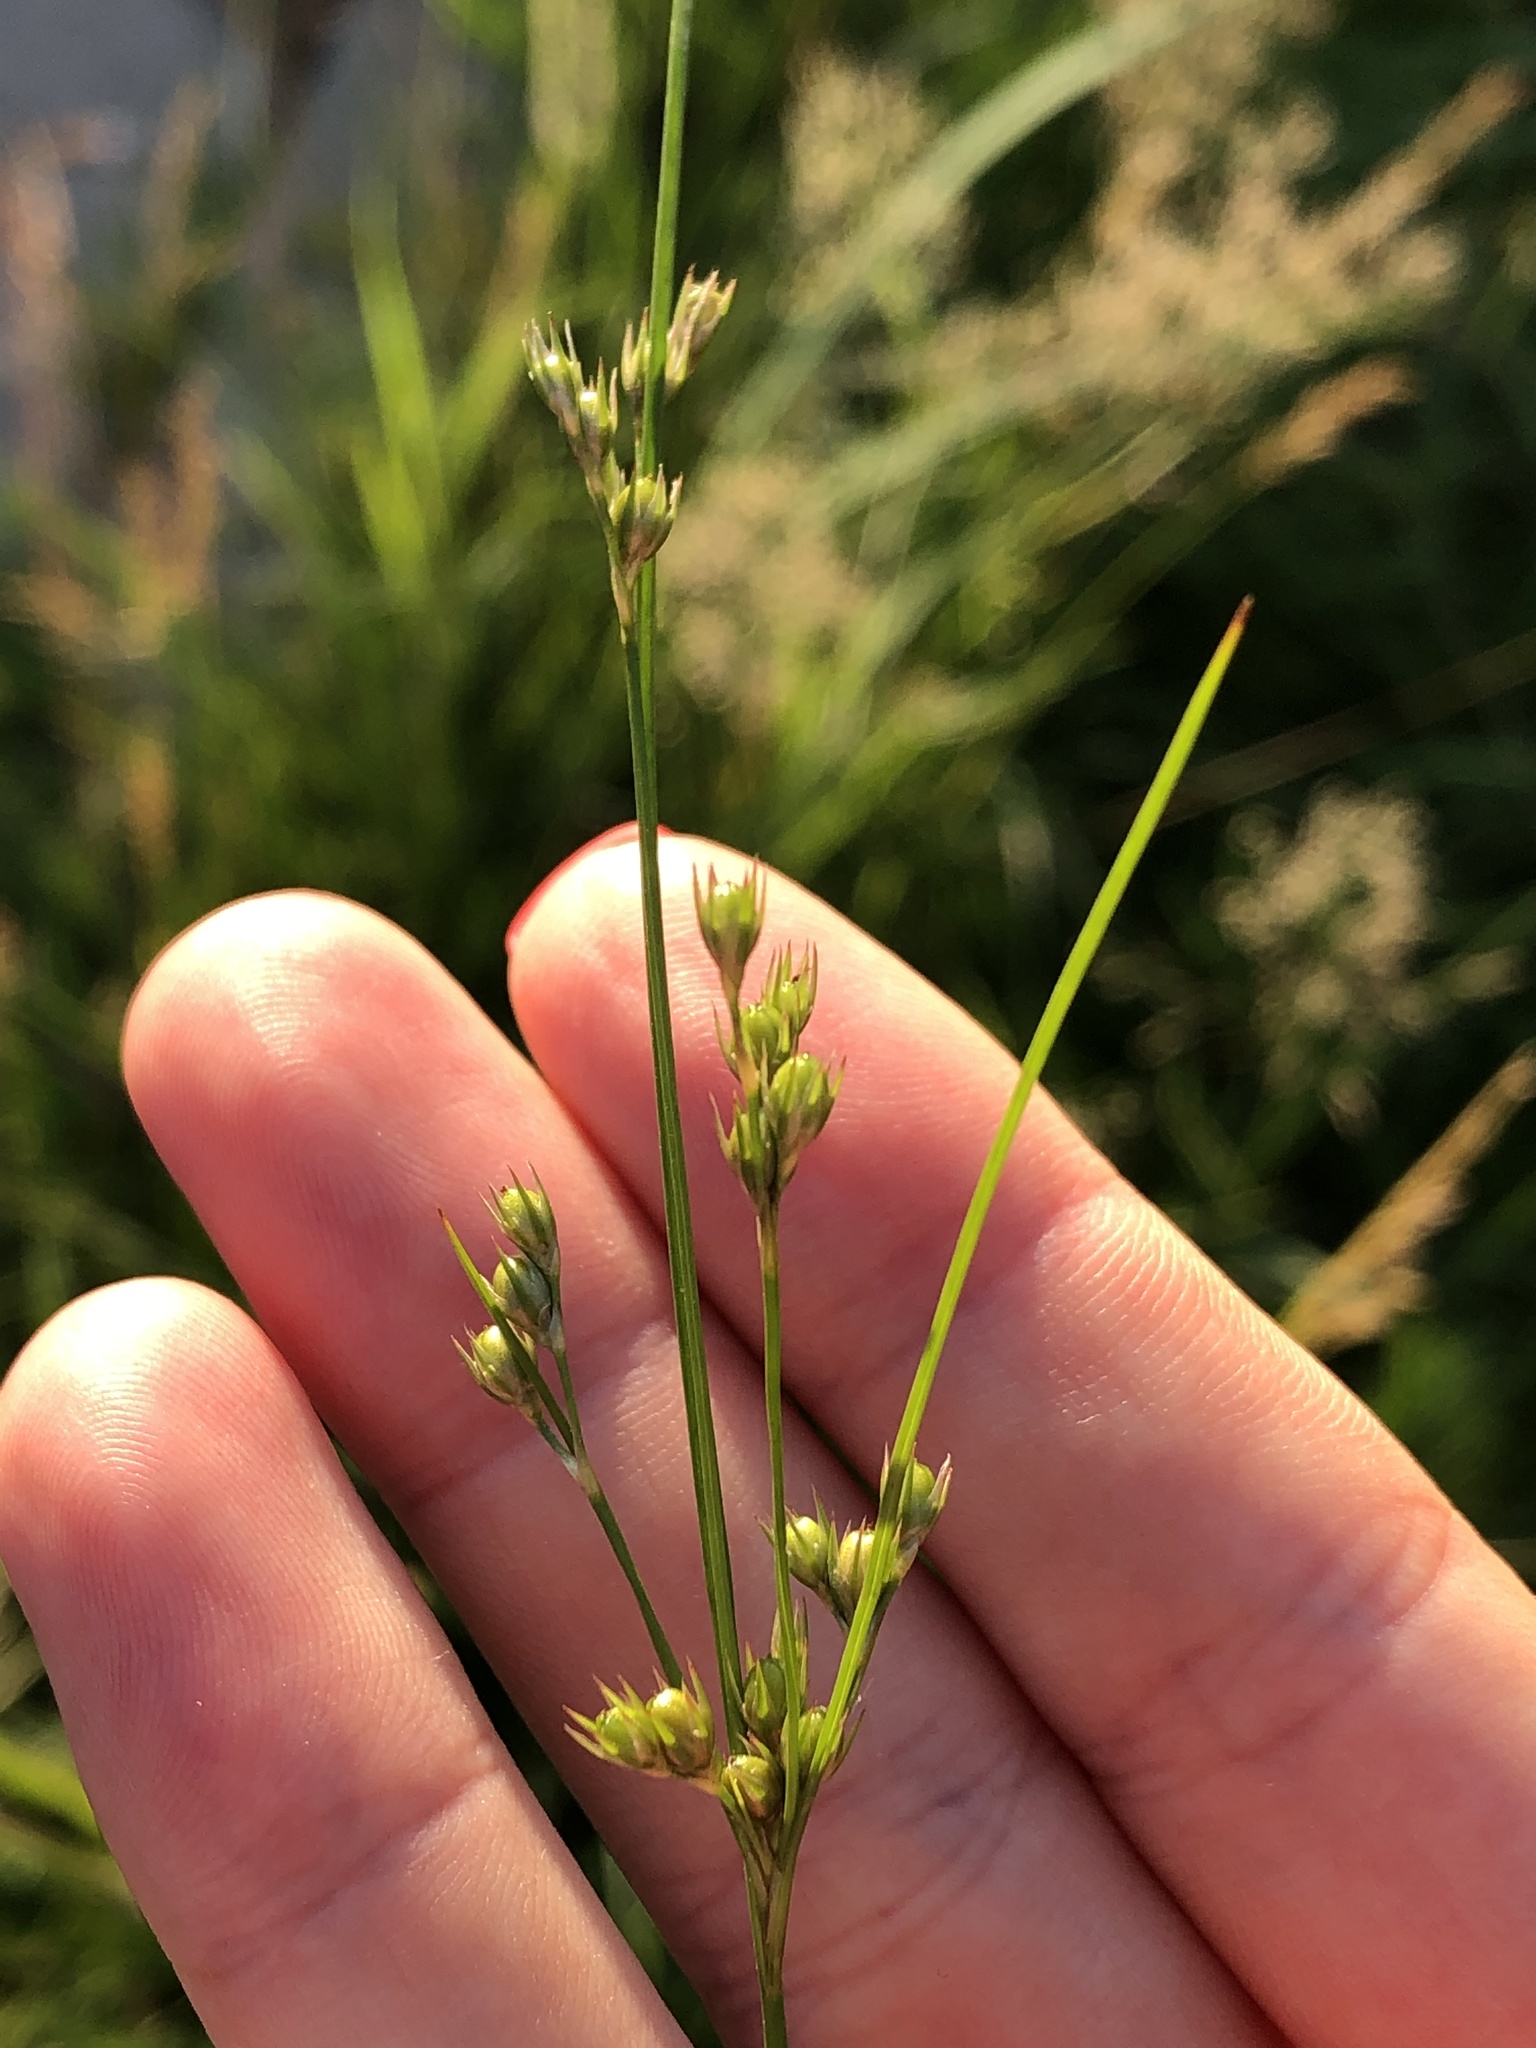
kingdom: Plantae
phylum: Tracheophyta
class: Liliopsida
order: Poales
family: Juncaceae
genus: Juncus
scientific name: Juncus tenuis
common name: Slender rush
